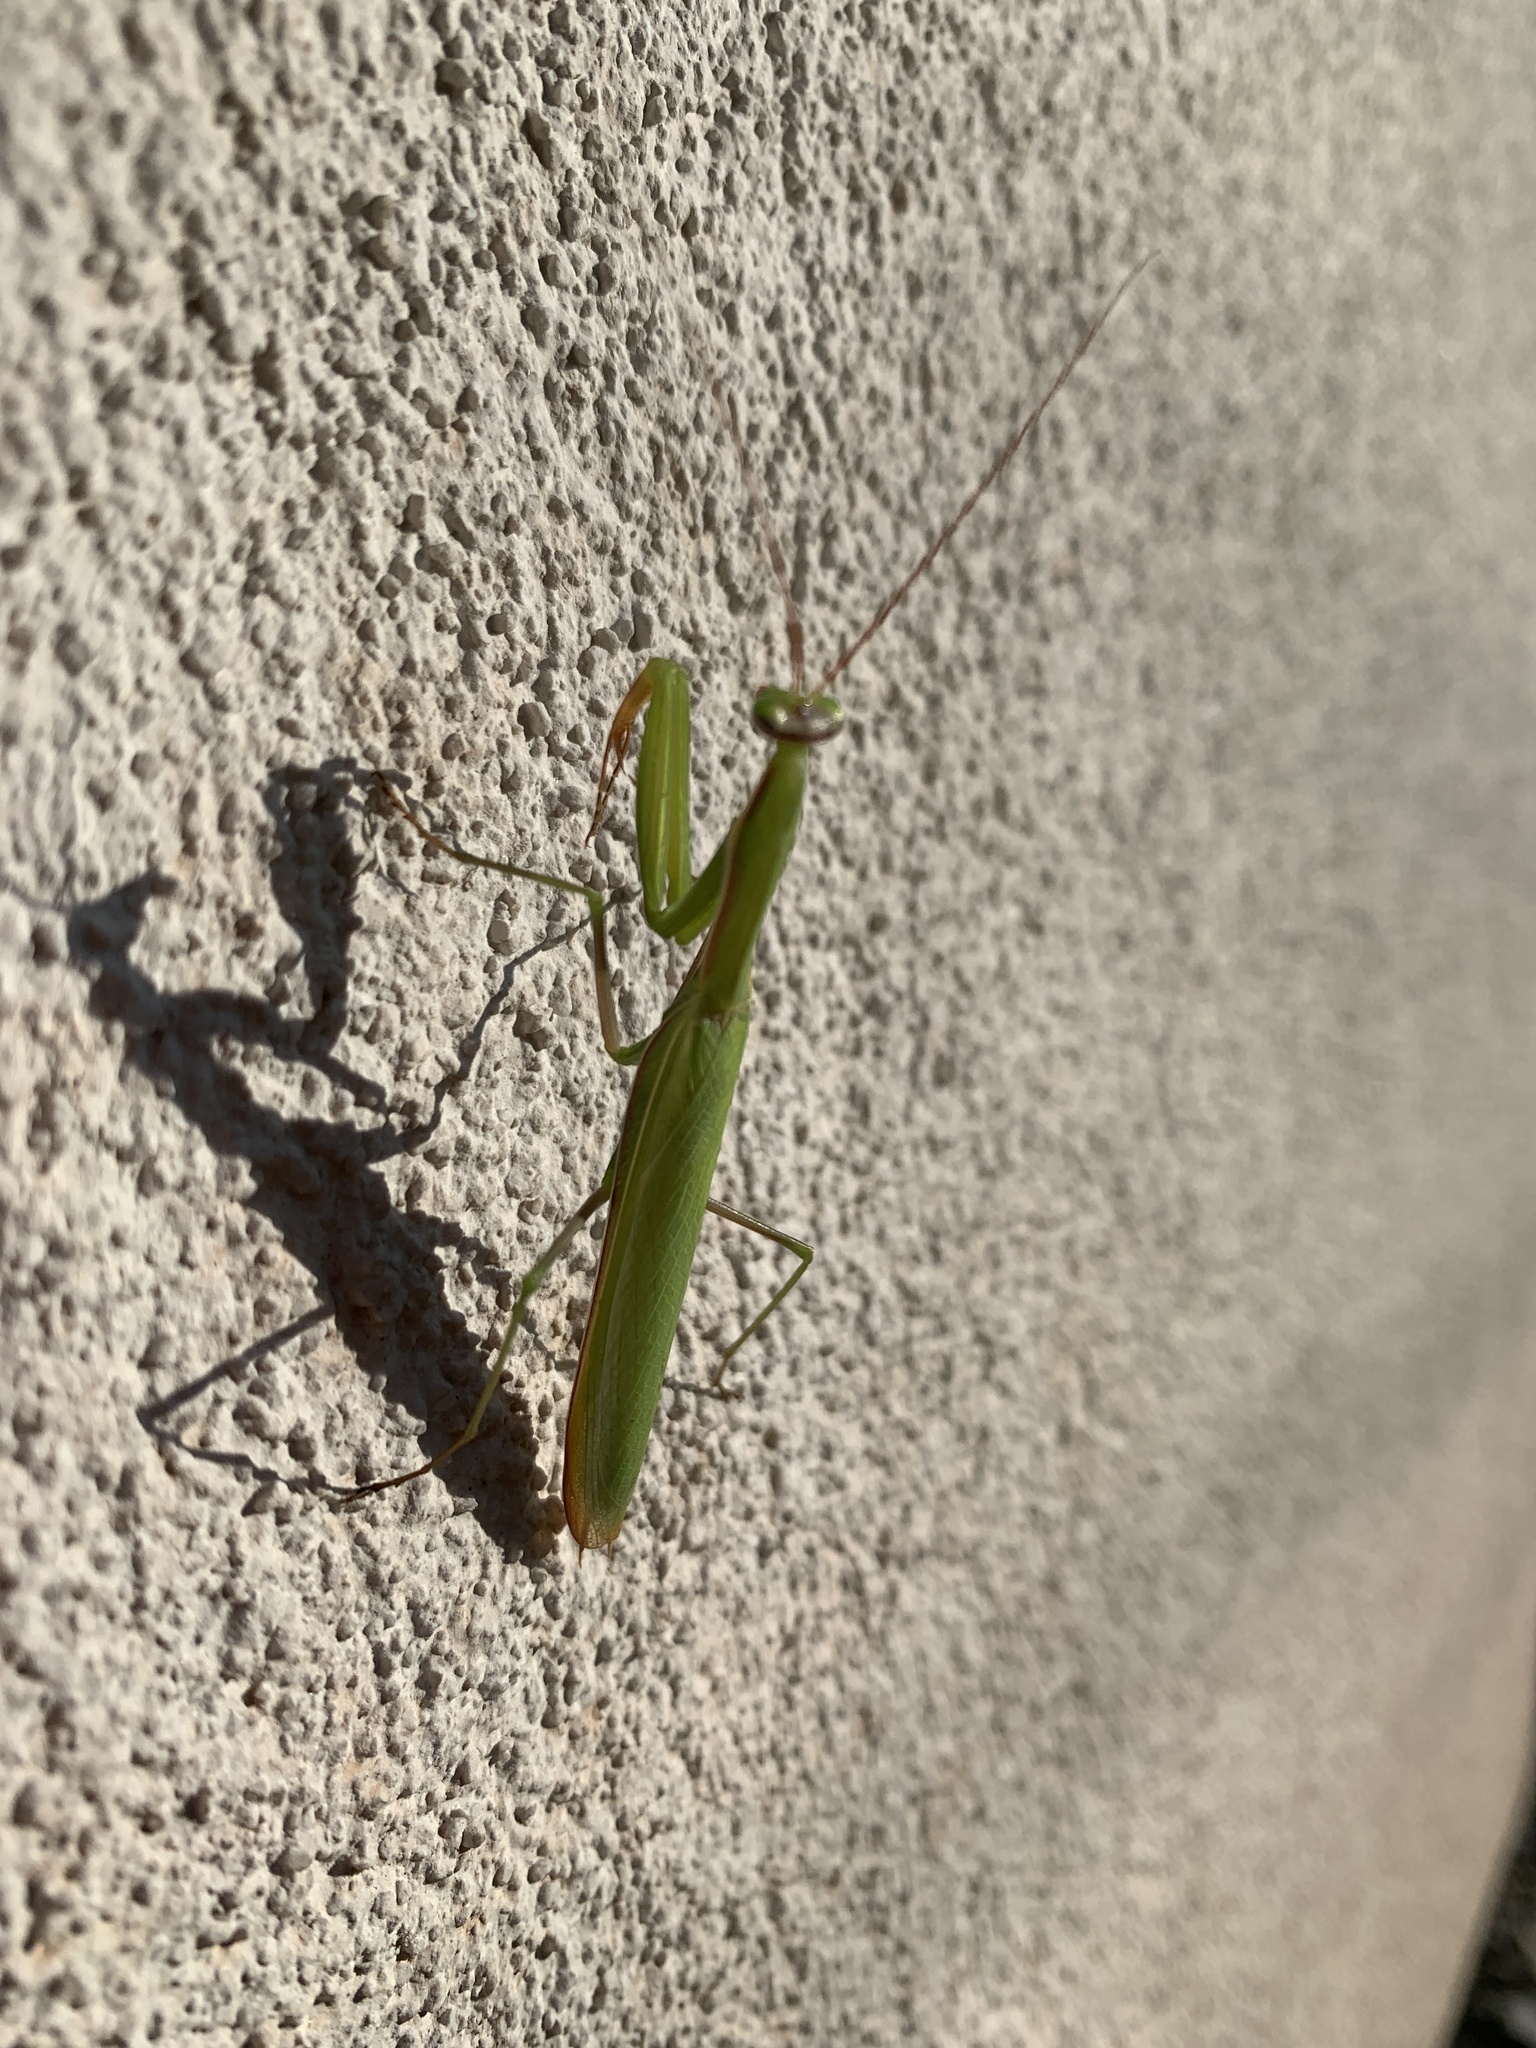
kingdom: Animalia
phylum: Arthropoda
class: Insecta
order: Mantodea
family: Mantidae
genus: Mantis
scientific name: Mantis religiosa
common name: Praying mantis
